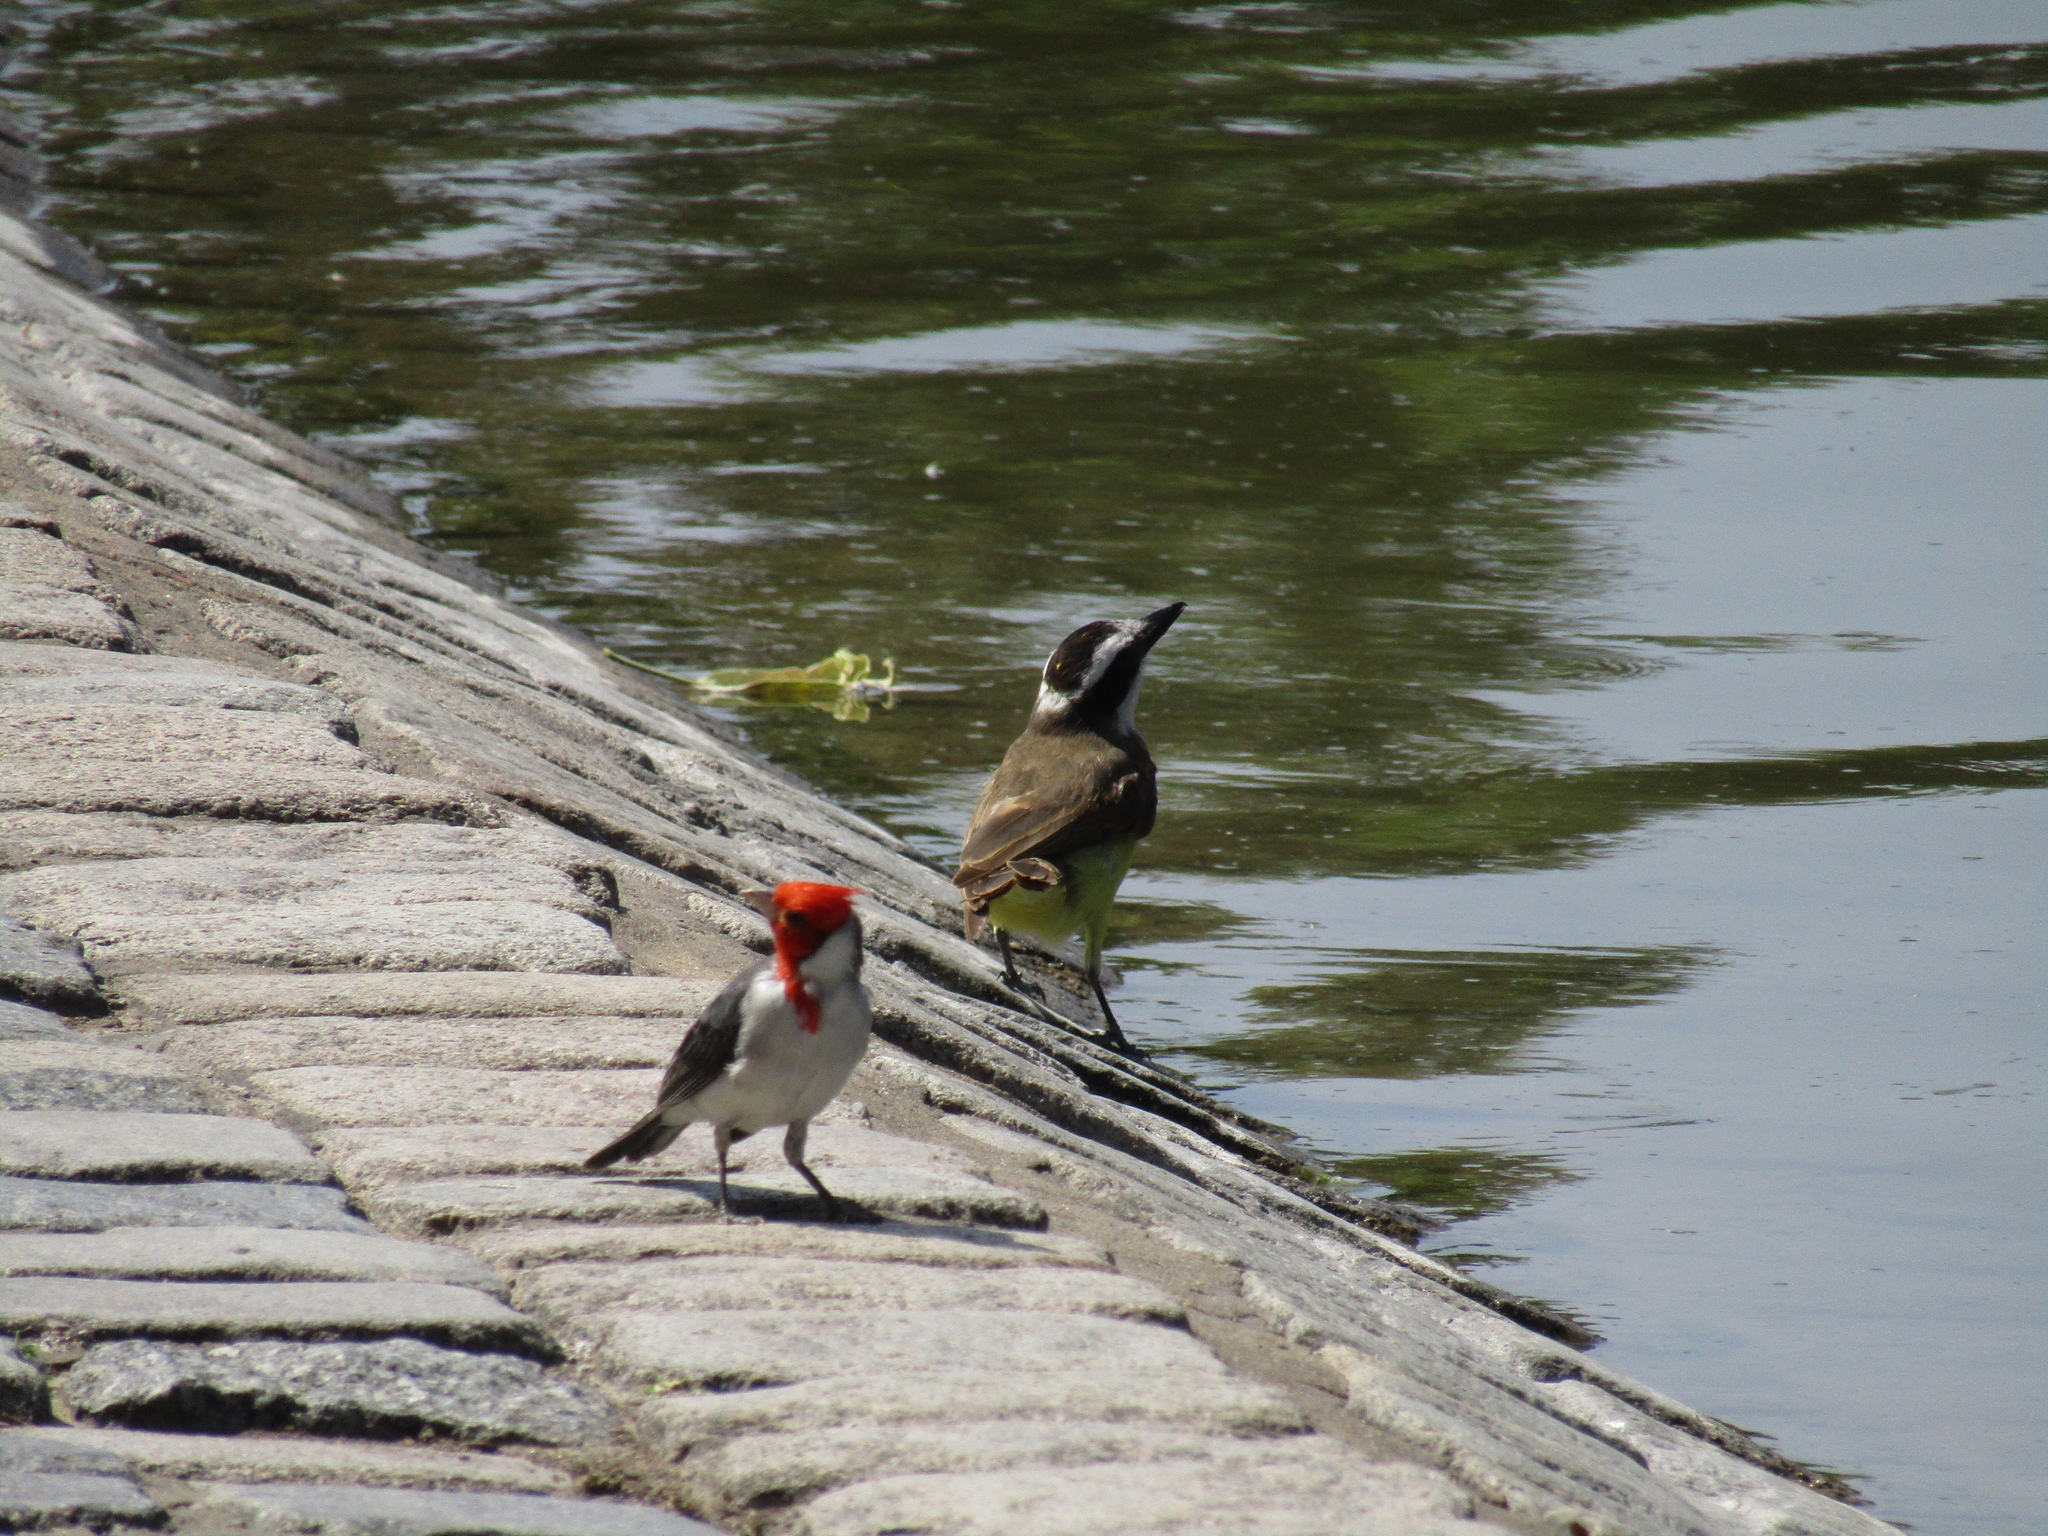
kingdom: Animalia
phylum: Chordata
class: Aves
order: Passeriformes
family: Thraupidae
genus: Paroaria
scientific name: Paroaria coronata
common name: Red-crested cardinal
